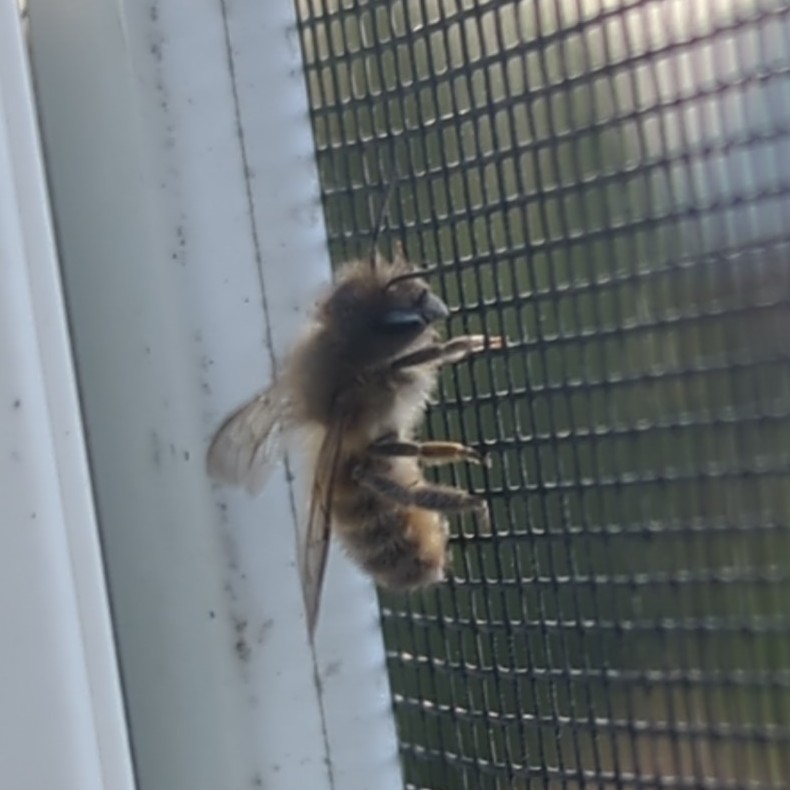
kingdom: Animalia
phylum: Arthropoda
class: Insecta
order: Hymenoptera
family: Megachilidae
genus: Osmia
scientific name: Osmia cornifrons
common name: Horn-faced bee
